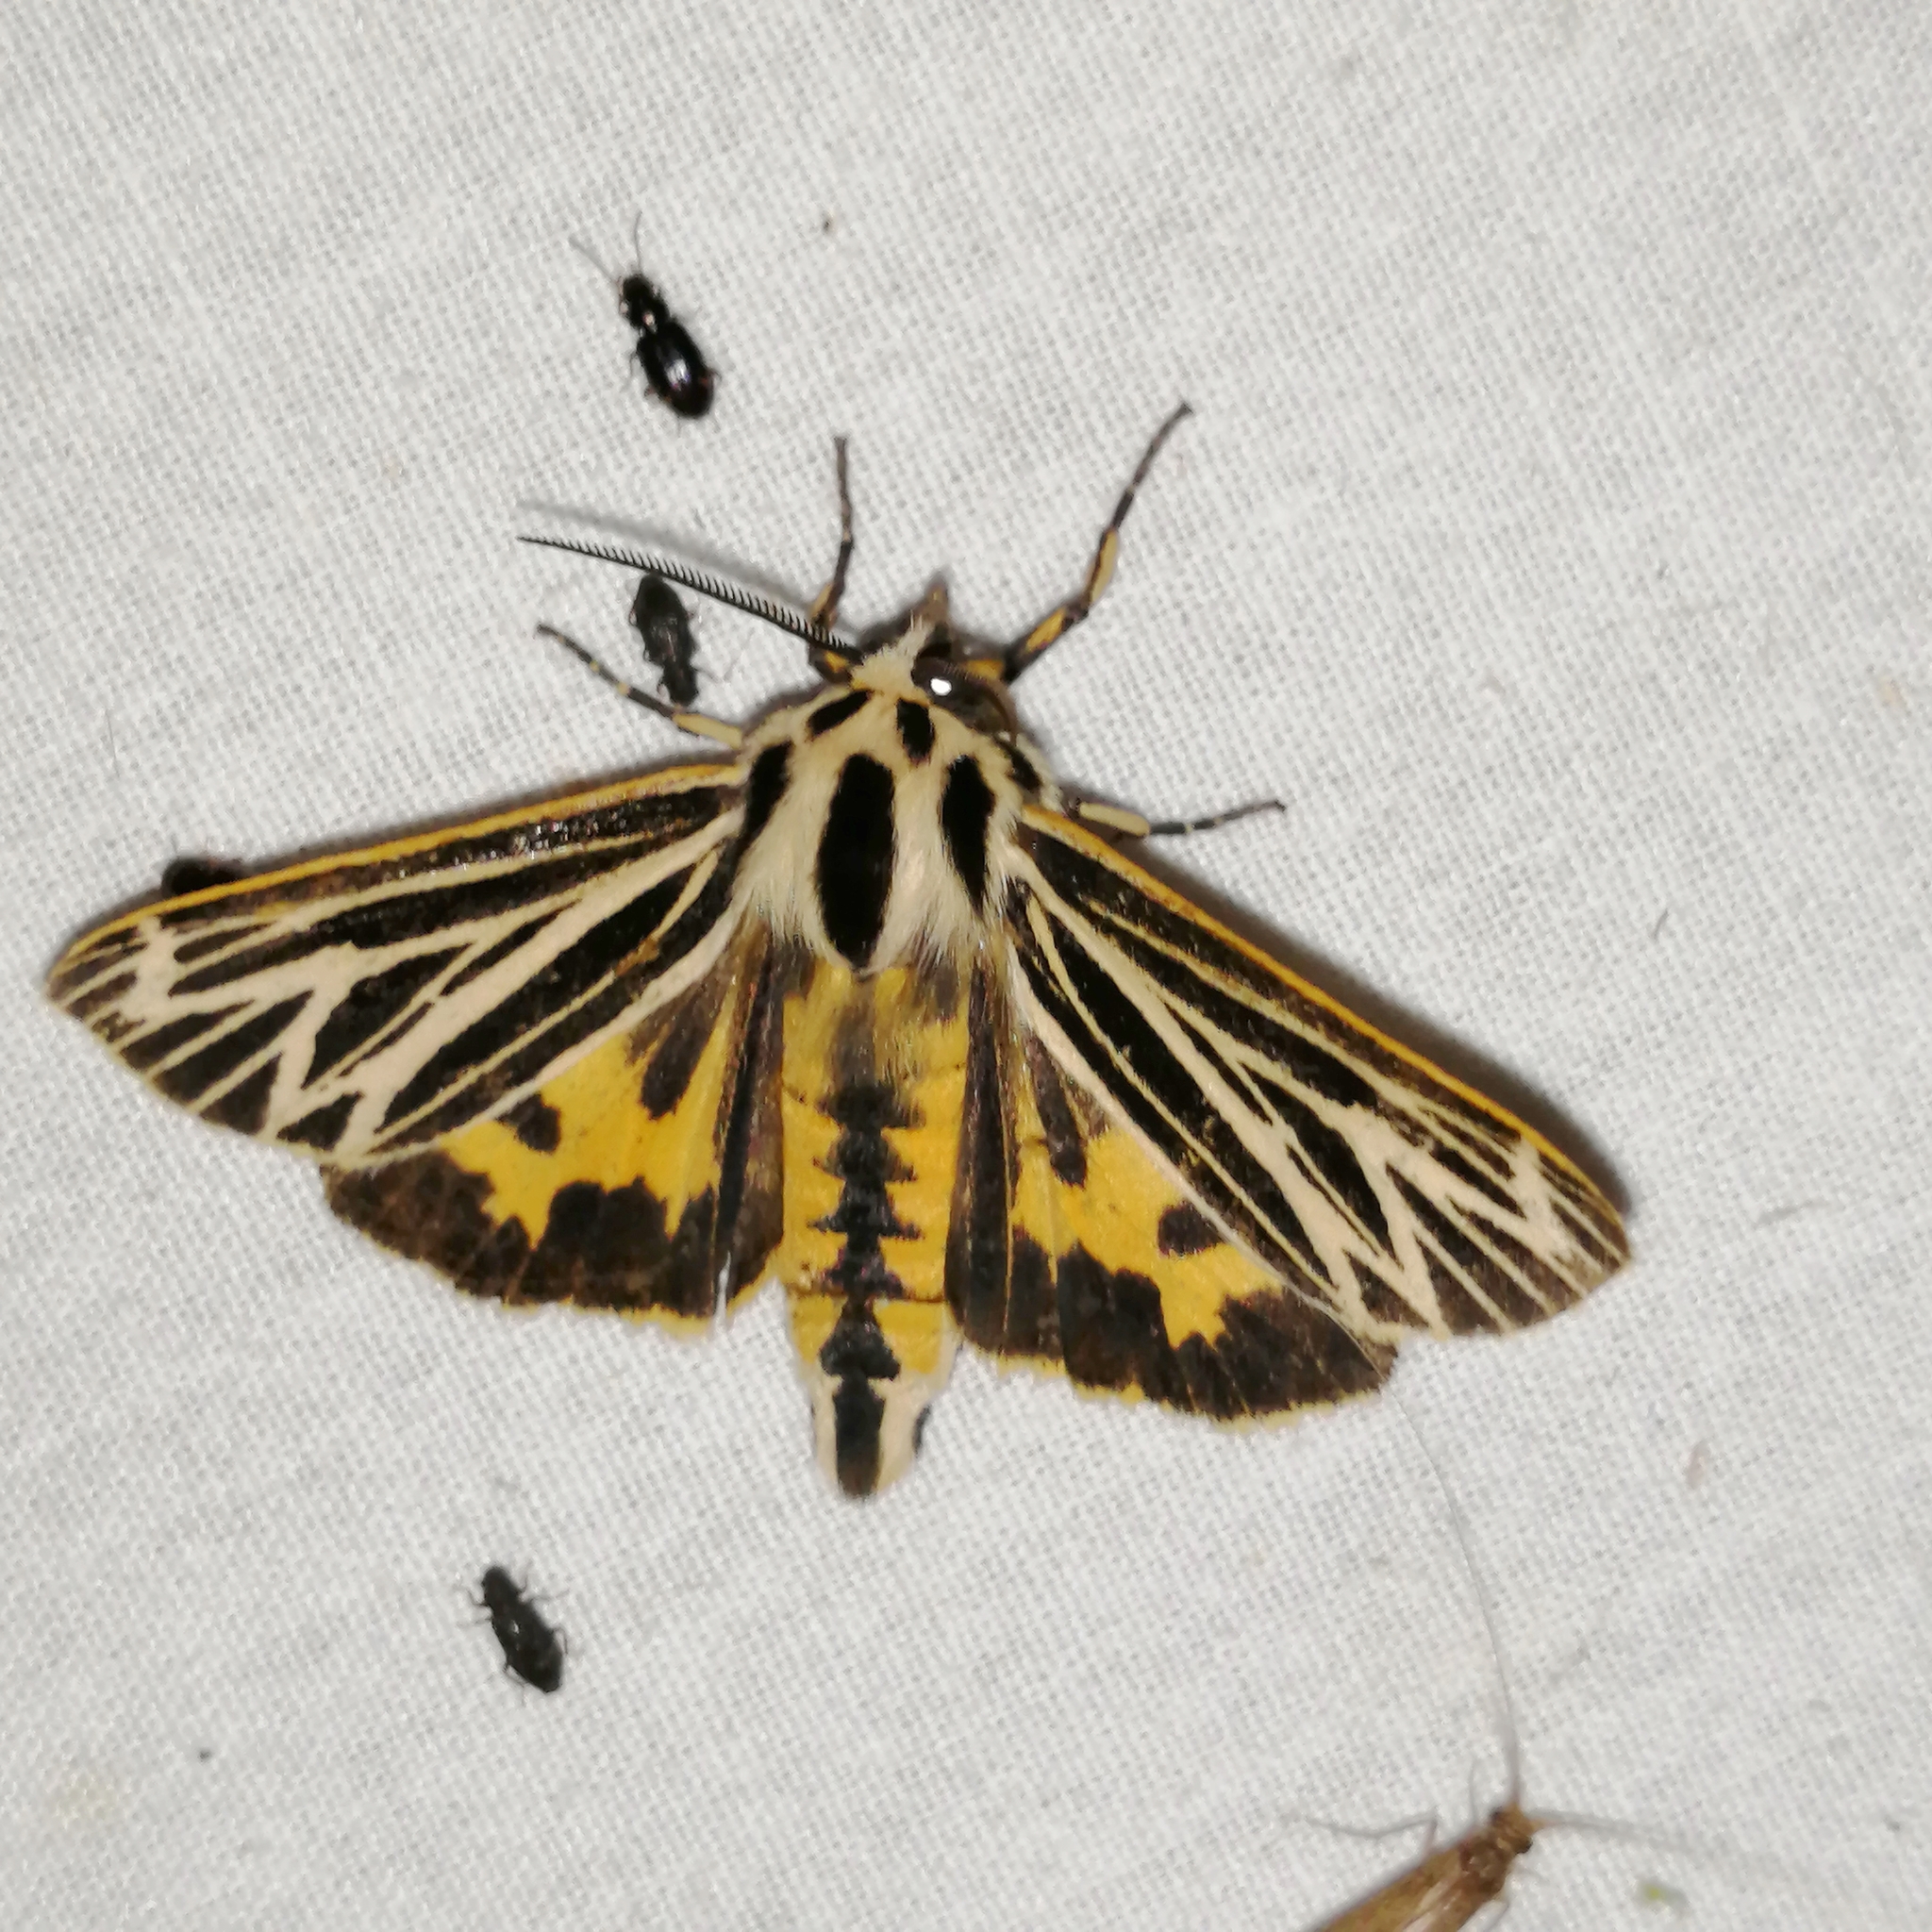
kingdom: Animalia
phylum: Arthropoda
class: Insecta
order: Lepidoptera
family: Erebidae
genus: Grammia
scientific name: Grammia virguncula
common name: Little tiger moth
